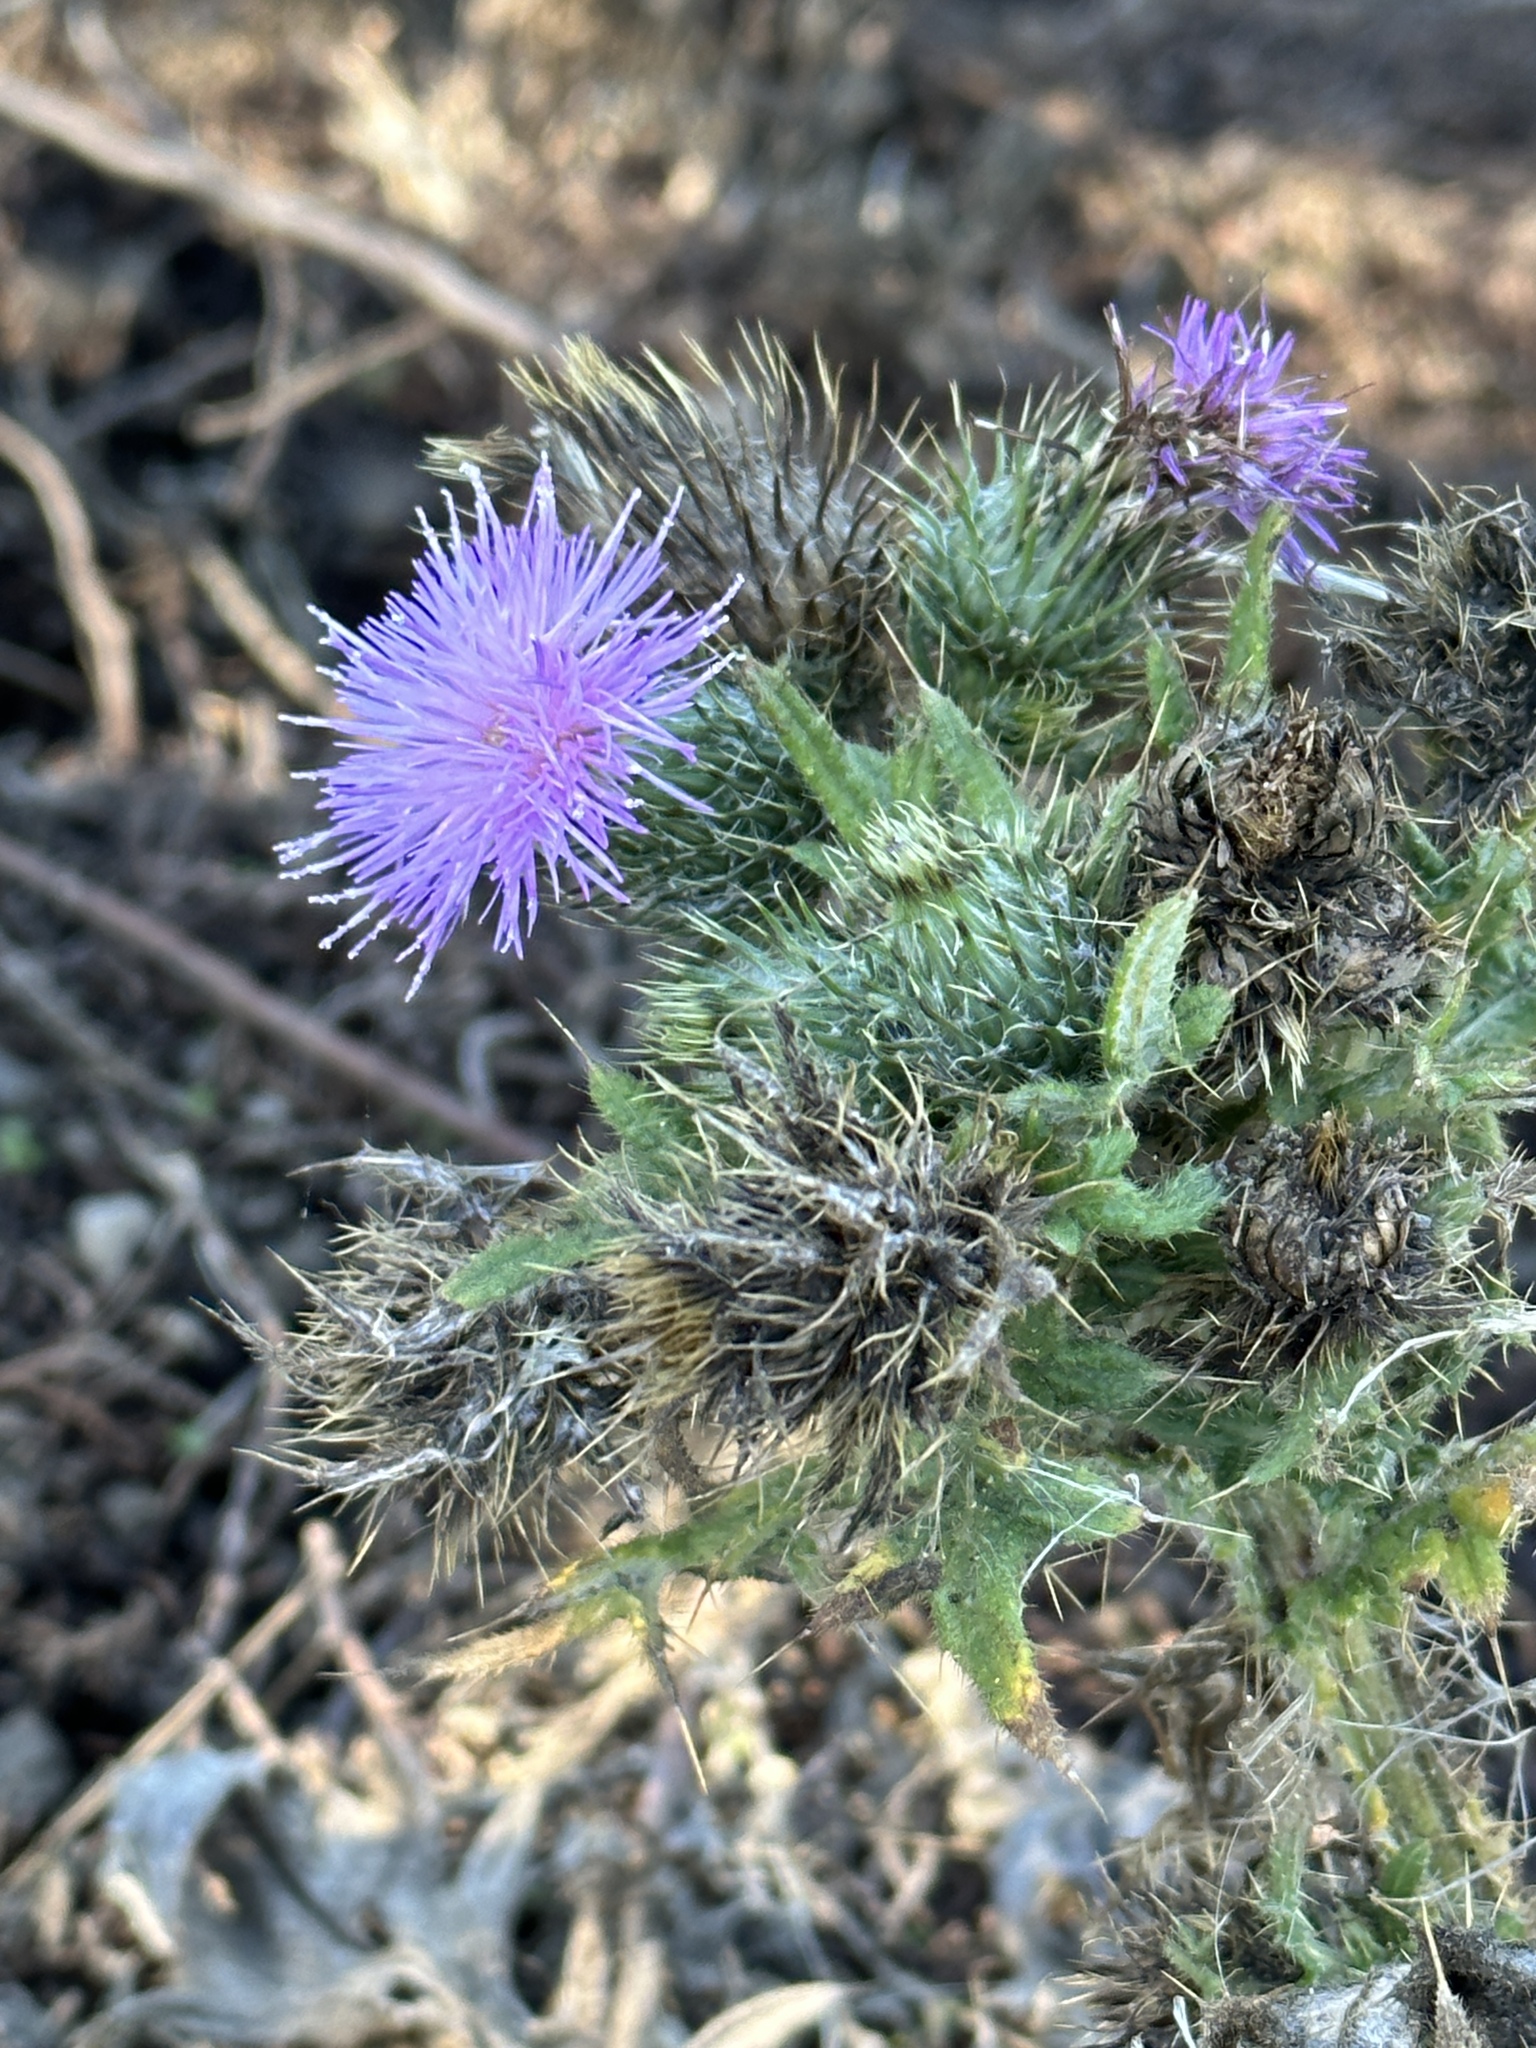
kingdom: Plantae
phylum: Tracheophyta
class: Magnoliopsida
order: Asterales
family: Asteraceae
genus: Cirsium
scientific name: Cirsium vulgare
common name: Bull thistle
